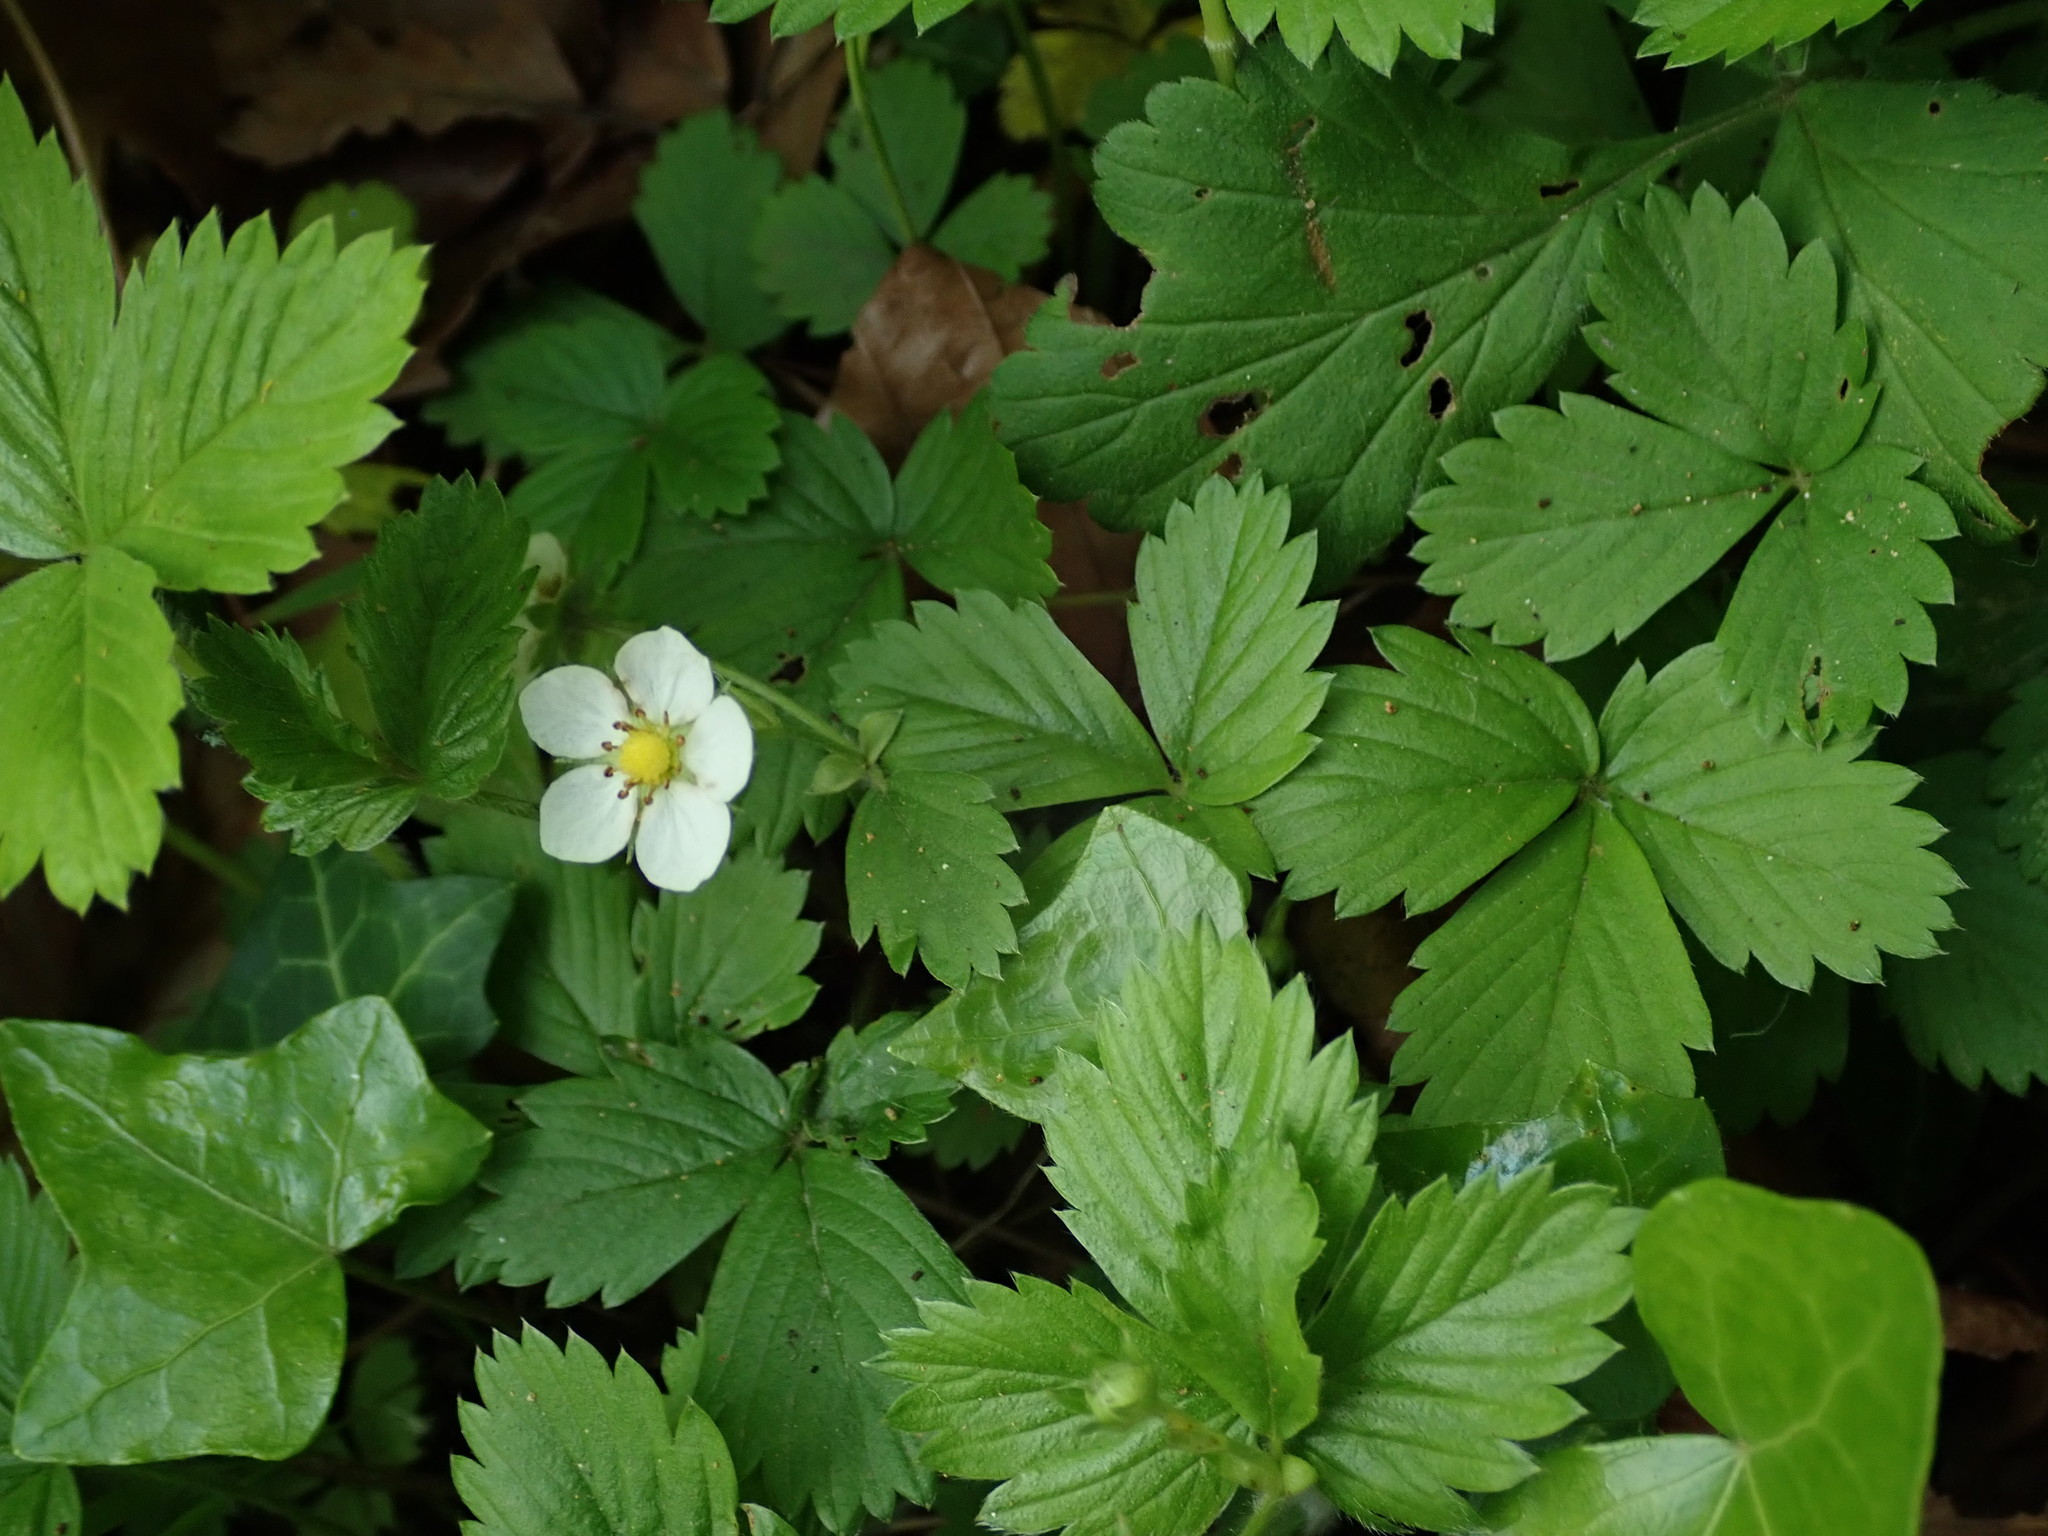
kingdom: Plantae
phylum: Tracheophyta
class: Magnoliopsida
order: Rosales
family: Rosaceae
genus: Fragaria
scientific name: Fragaria vesca
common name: Wild strawberry
